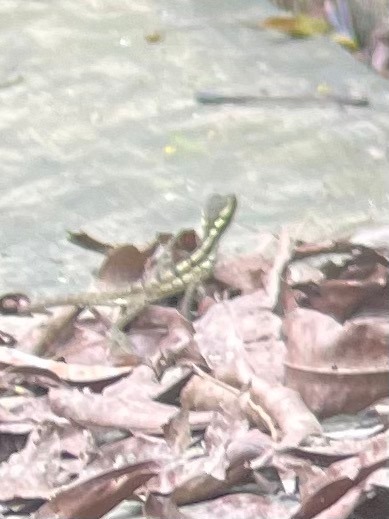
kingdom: Animalia
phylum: Chordata
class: Squamata
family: Corytophanidae
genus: Basiliscus
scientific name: Basiliscus basiliscus
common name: Common basilisk
